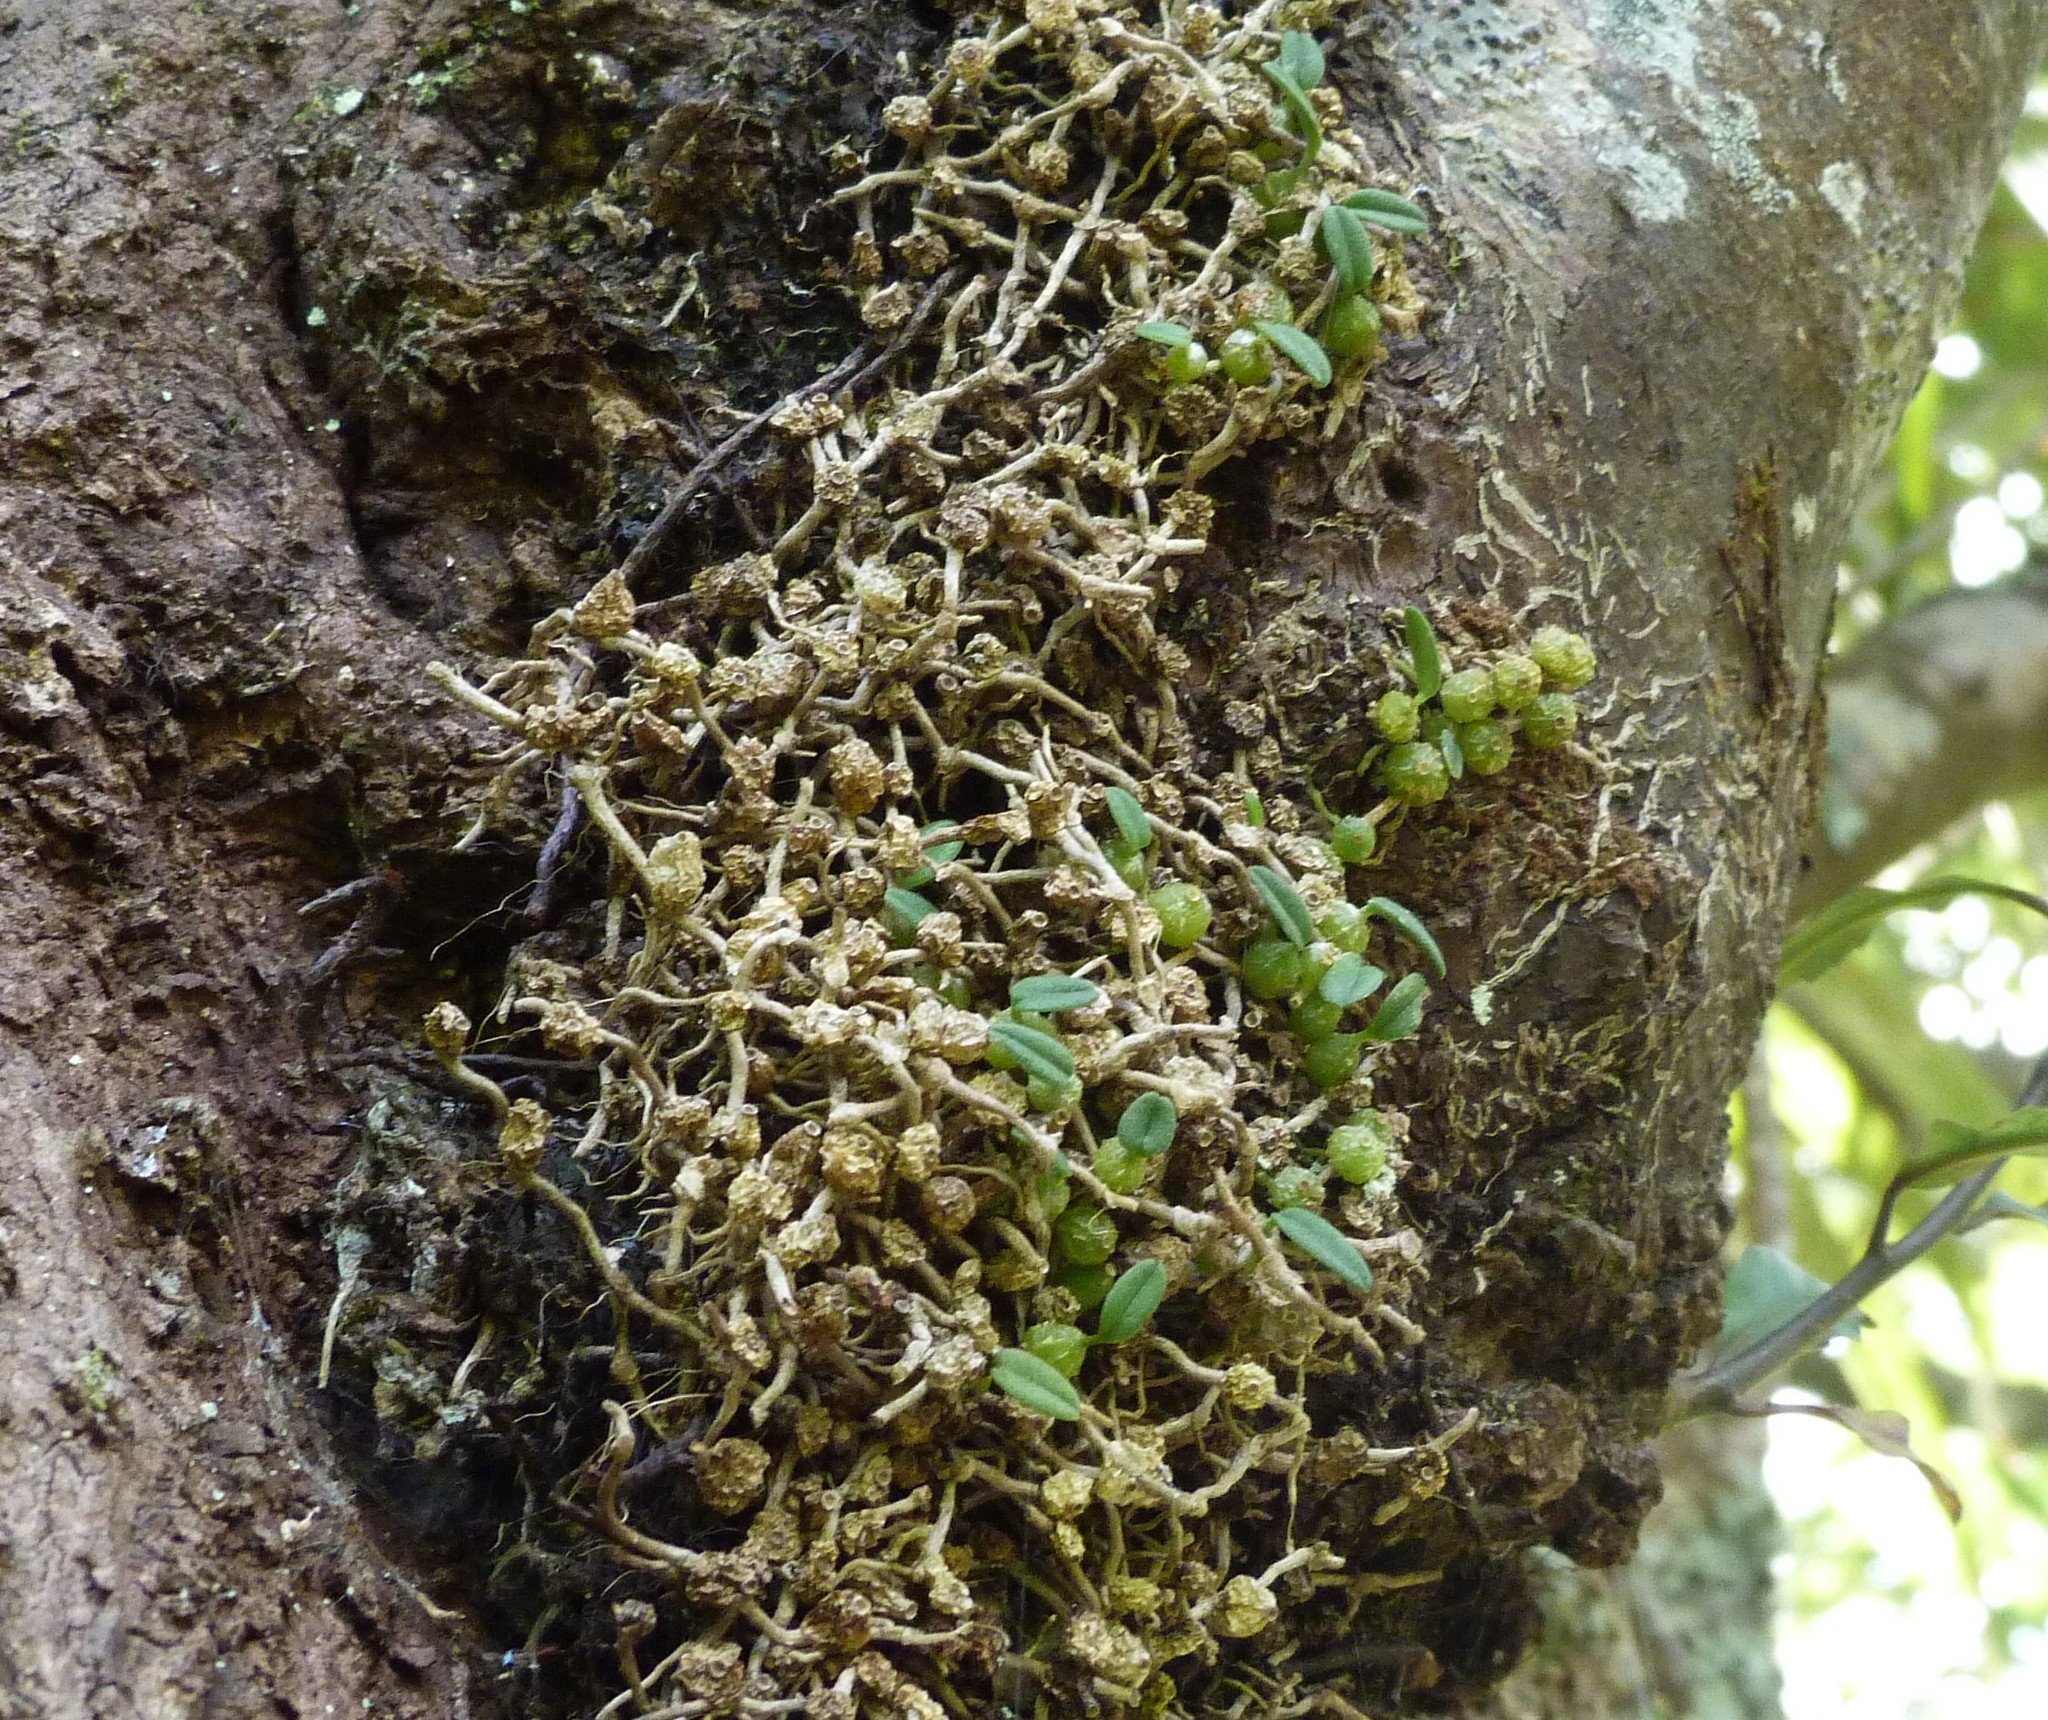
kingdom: Plantae
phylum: Tracheophyta
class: Liliopsida
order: Asparagales
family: Orchidaceae
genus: Bulbophyllum
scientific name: Bulbophyllum pygmaeum
